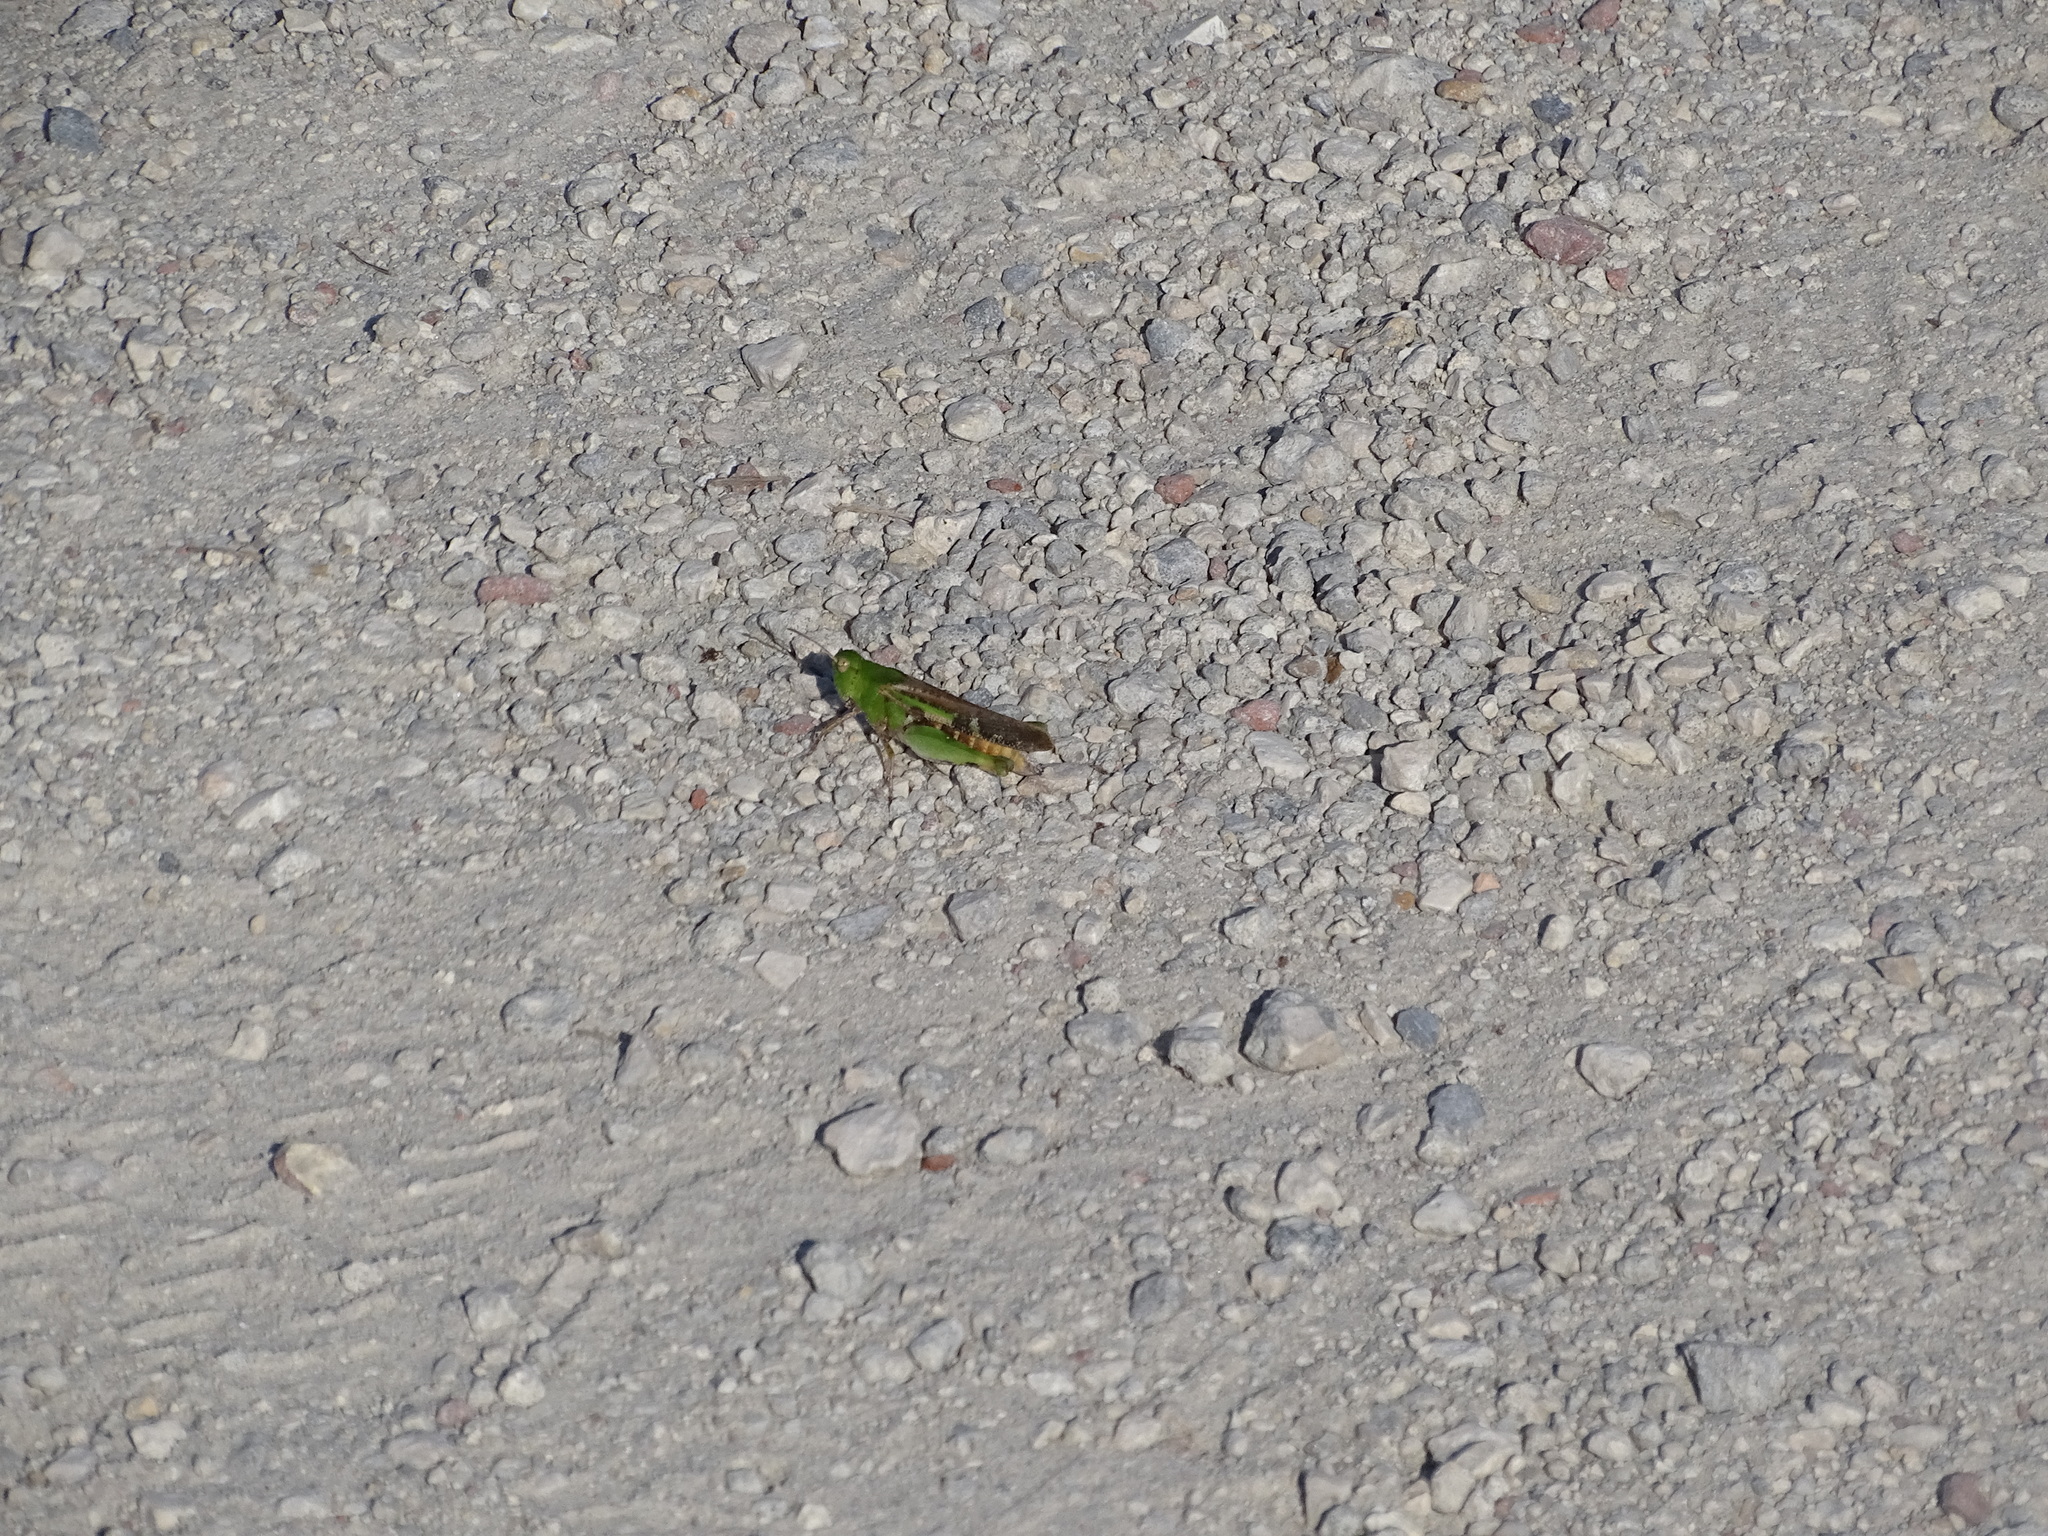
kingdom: Animalia
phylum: Arthropoda
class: Insecta
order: Orthoptera
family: Acrididae
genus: Chortophaga
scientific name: Chortophaga australior
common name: Southern green-striped grasshopper
